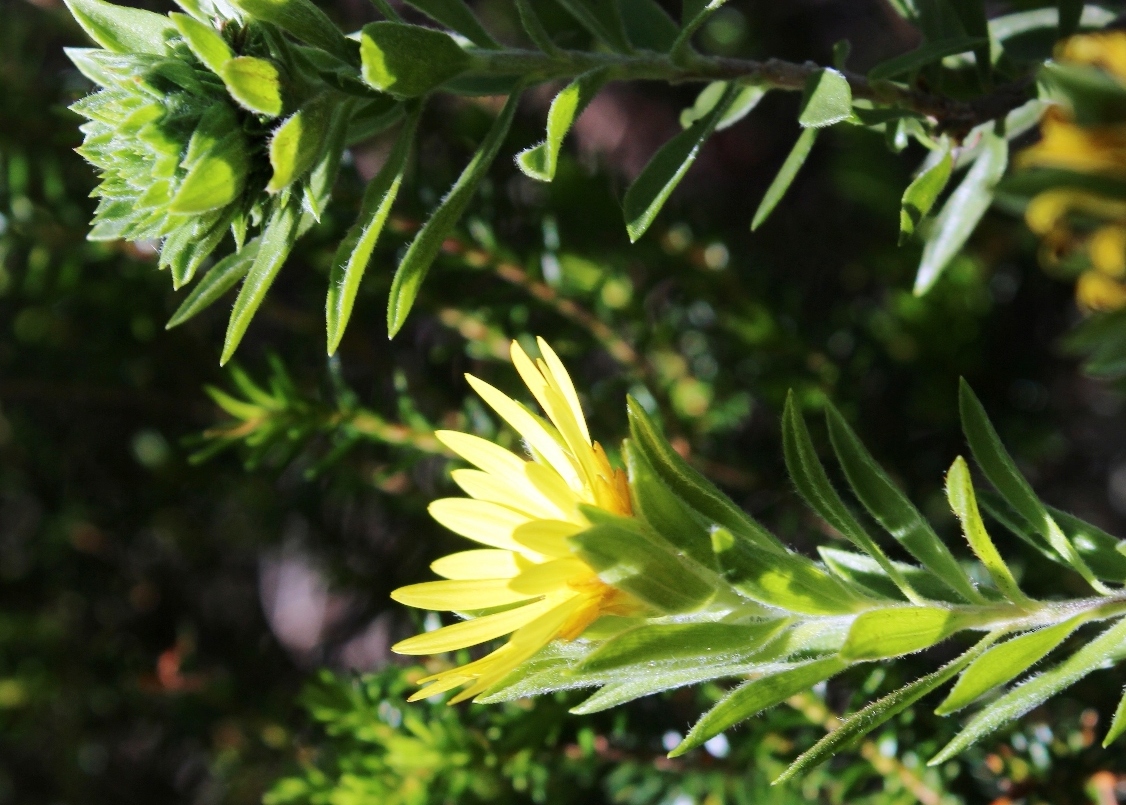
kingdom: Plantae
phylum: Tracheophyta
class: Magnoliopsida
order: Asterales
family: Asteraceae
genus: Oedera
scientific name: Oedera calycina
